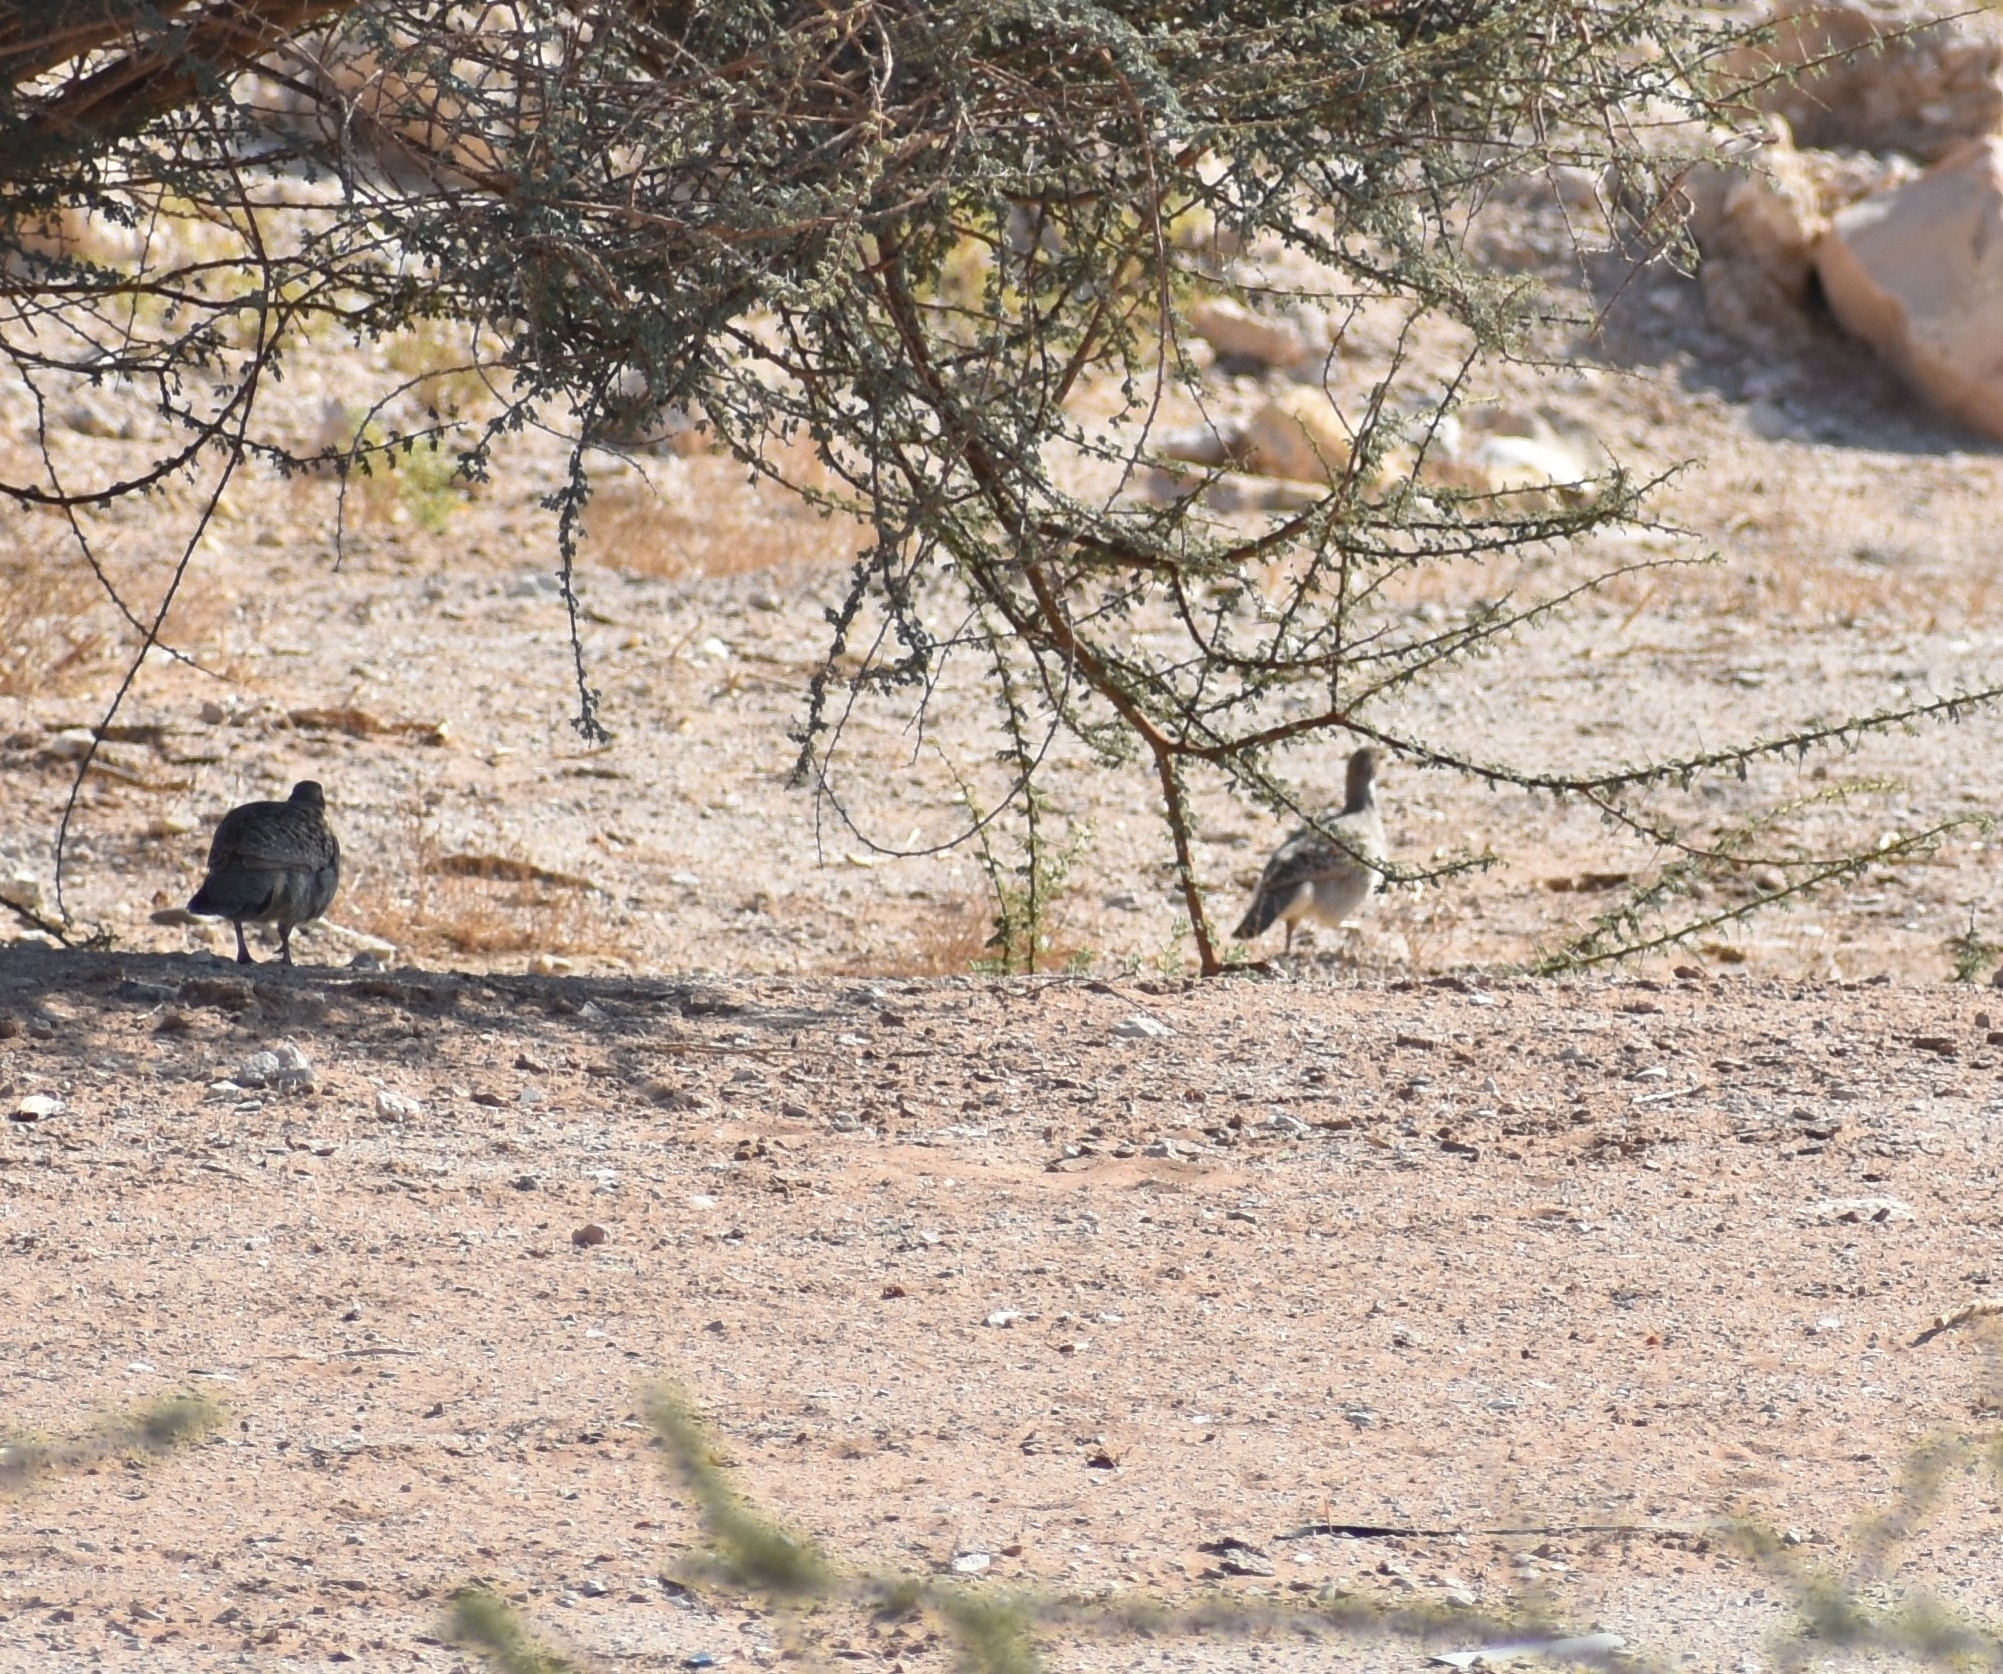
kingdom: Animalia
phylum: Chordata
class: Aves
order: Galliformes
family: Phasianidae
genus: Ortygornis
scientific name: Ortygornis pondicerianus
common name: Grey francolin
